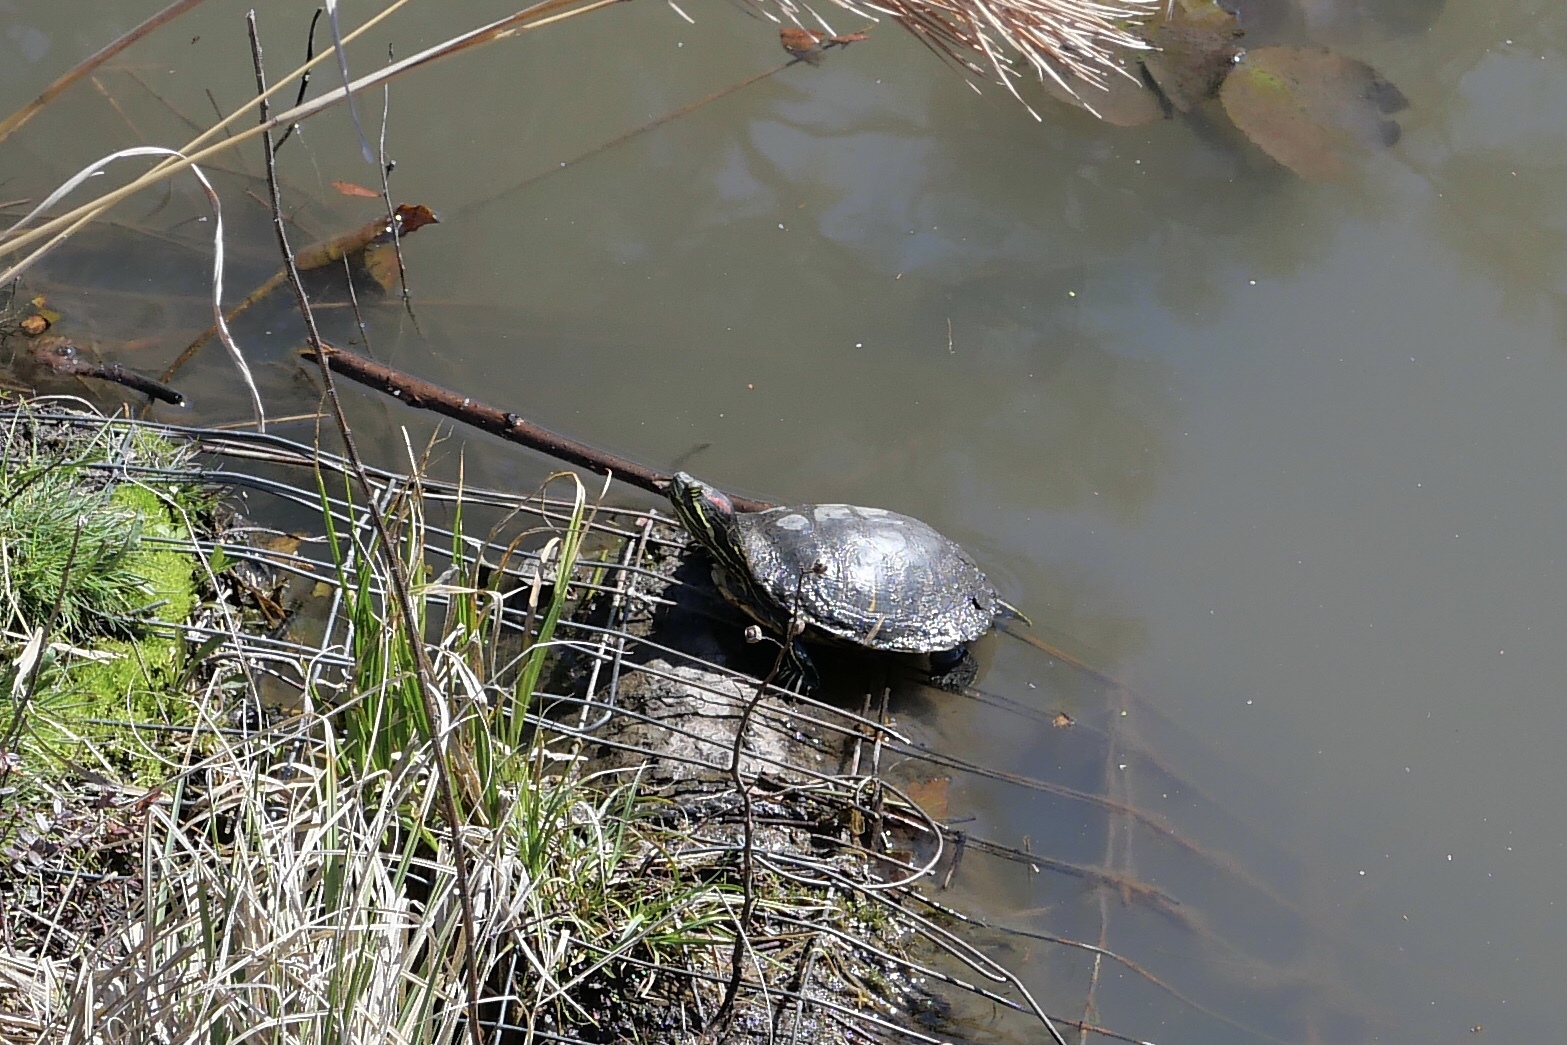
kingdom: Animalia
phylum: Chordata
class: Testudines
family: Emydidae
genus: Trachemys
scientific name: Trachemys scripta
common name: Slider
